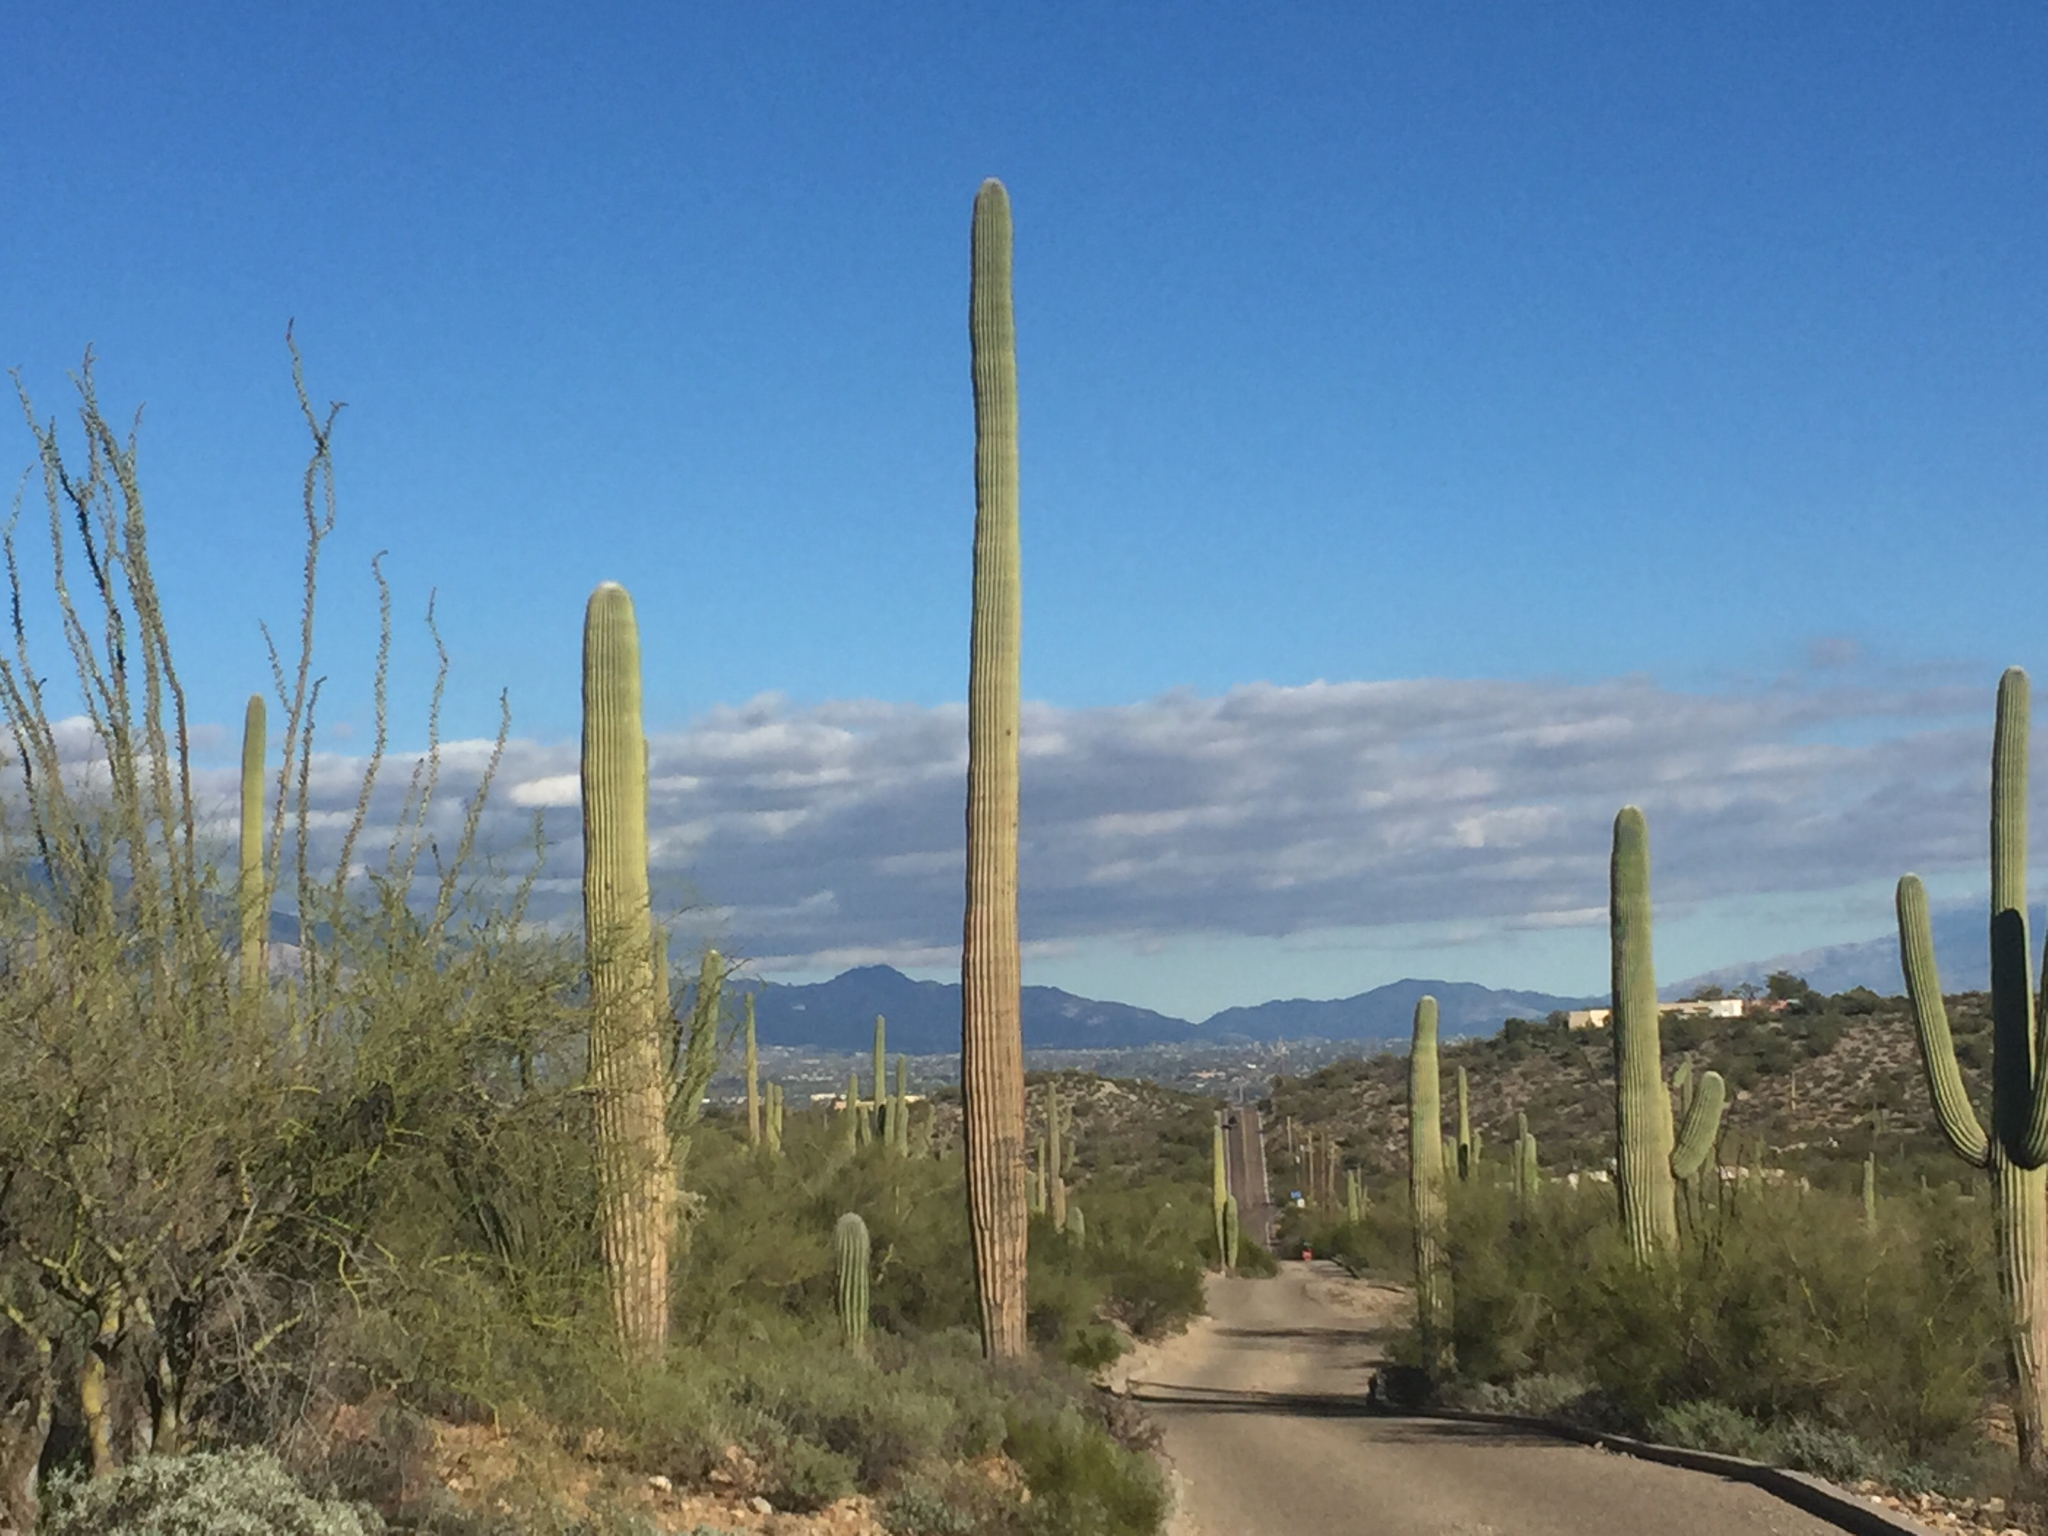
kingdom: Plantae
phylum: Tracheophyta
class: Magnoliopsida
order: Caryophyllales
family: Cactaceae
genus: Carnegiea
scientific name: Carnegiea gigantea
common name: Saguaro
